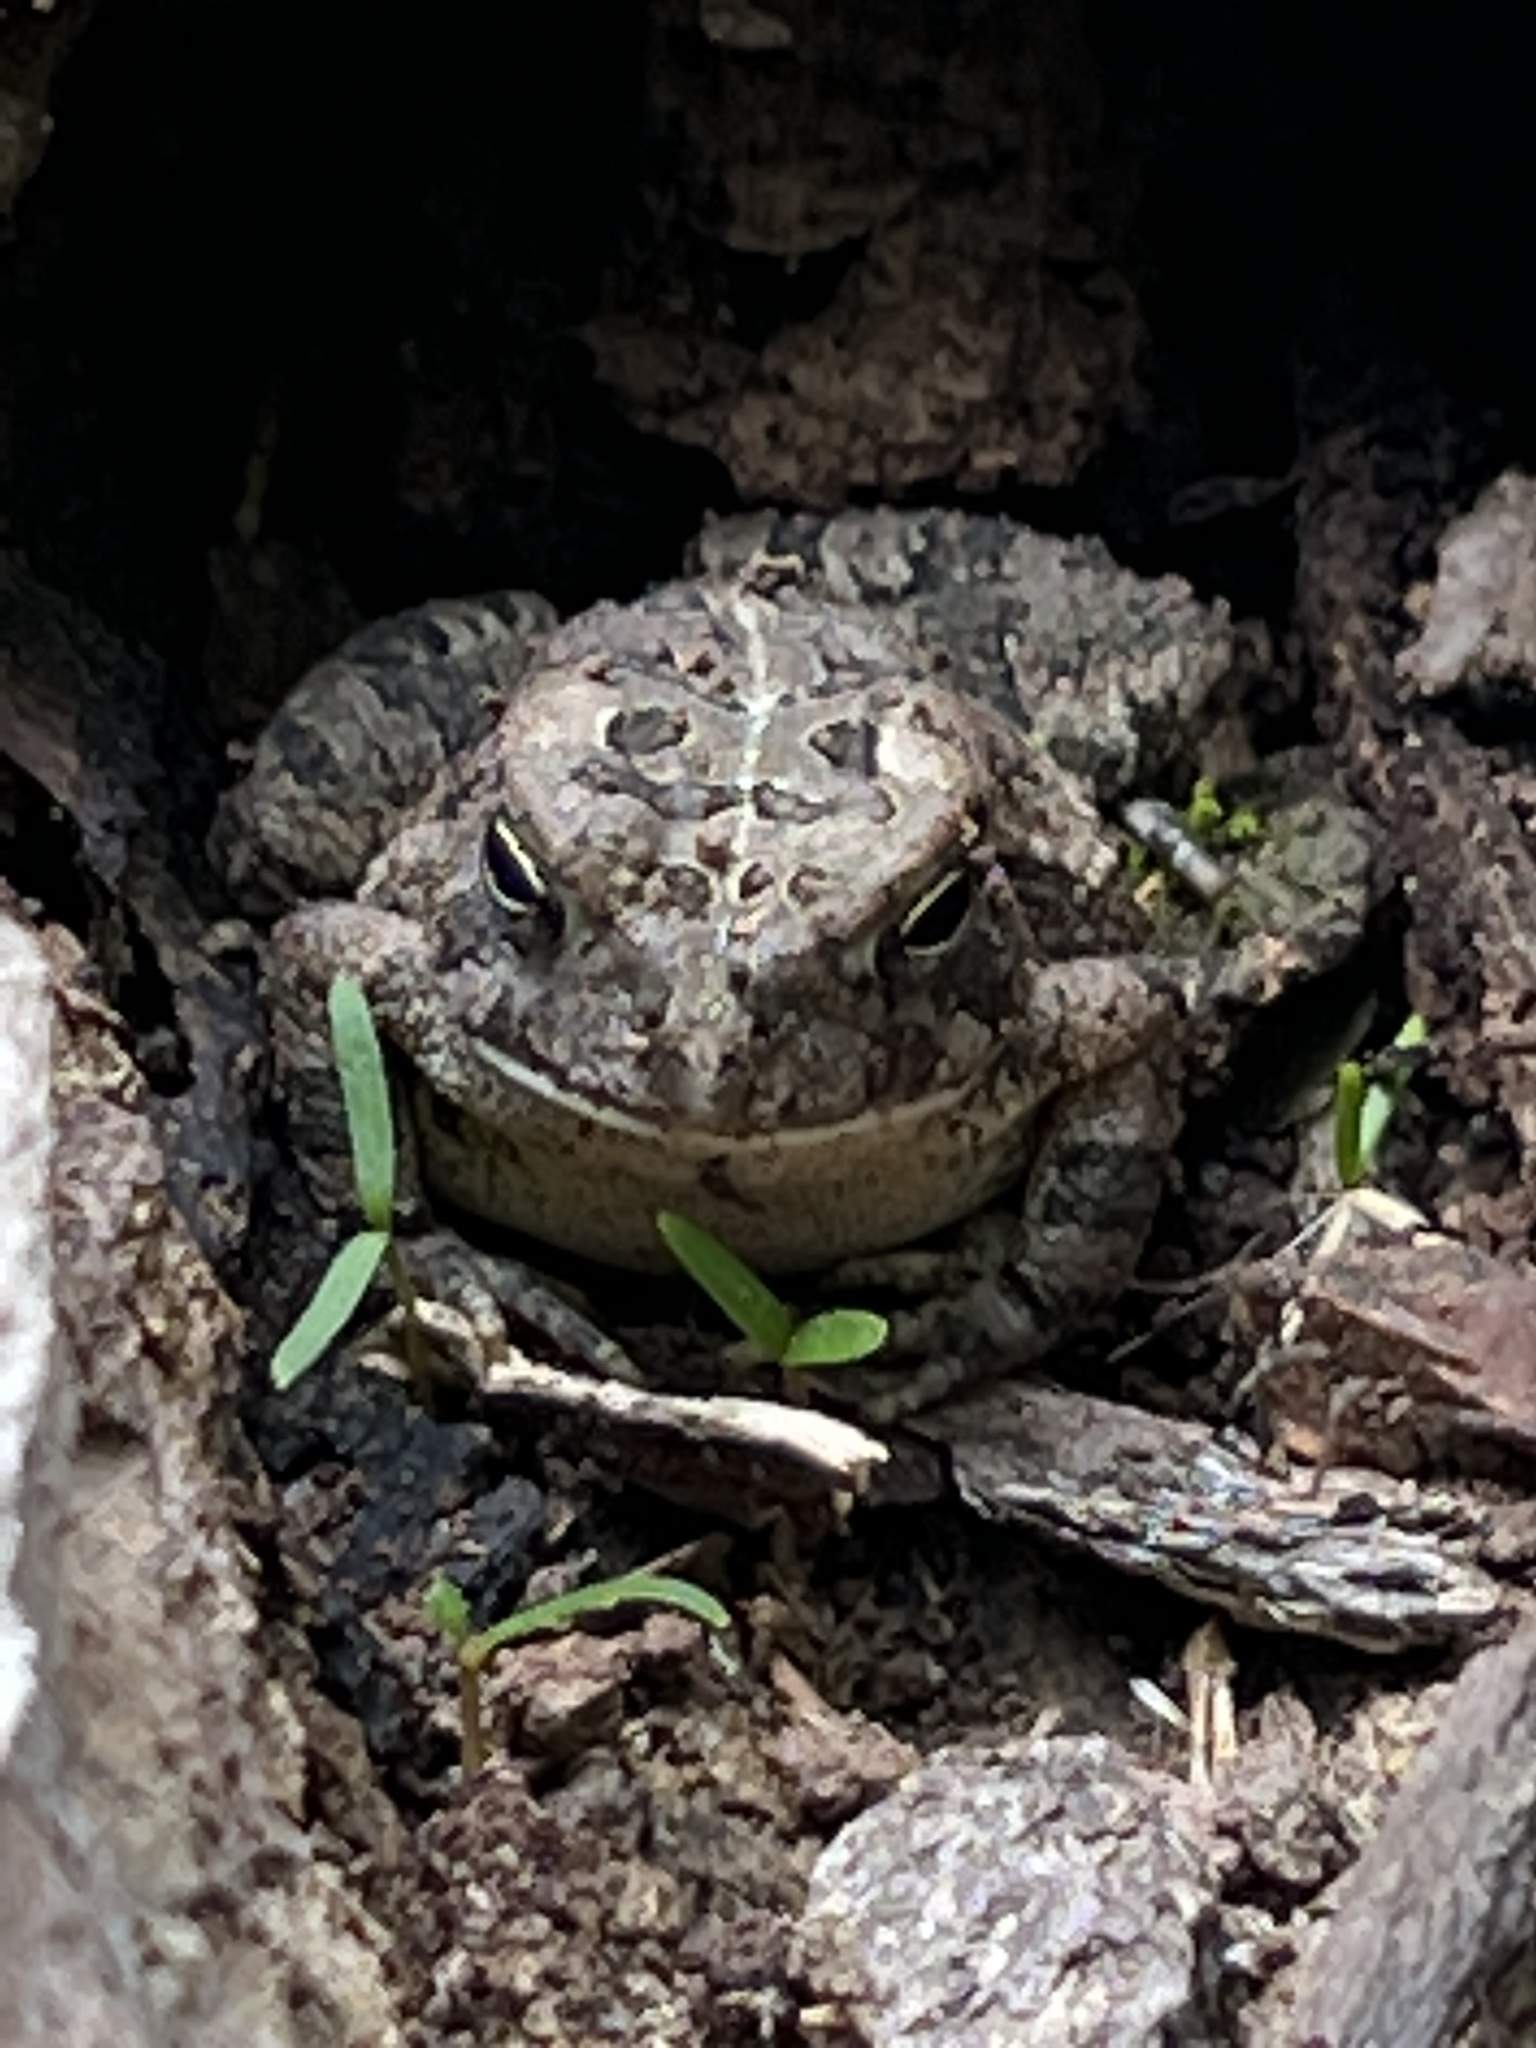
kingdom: Animalia
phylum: Chordata
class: Amphibia
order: Anura
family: Bufonidae
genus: Anaxyrus
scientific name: Anaxyrus fowleri
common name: Fowler's toad
